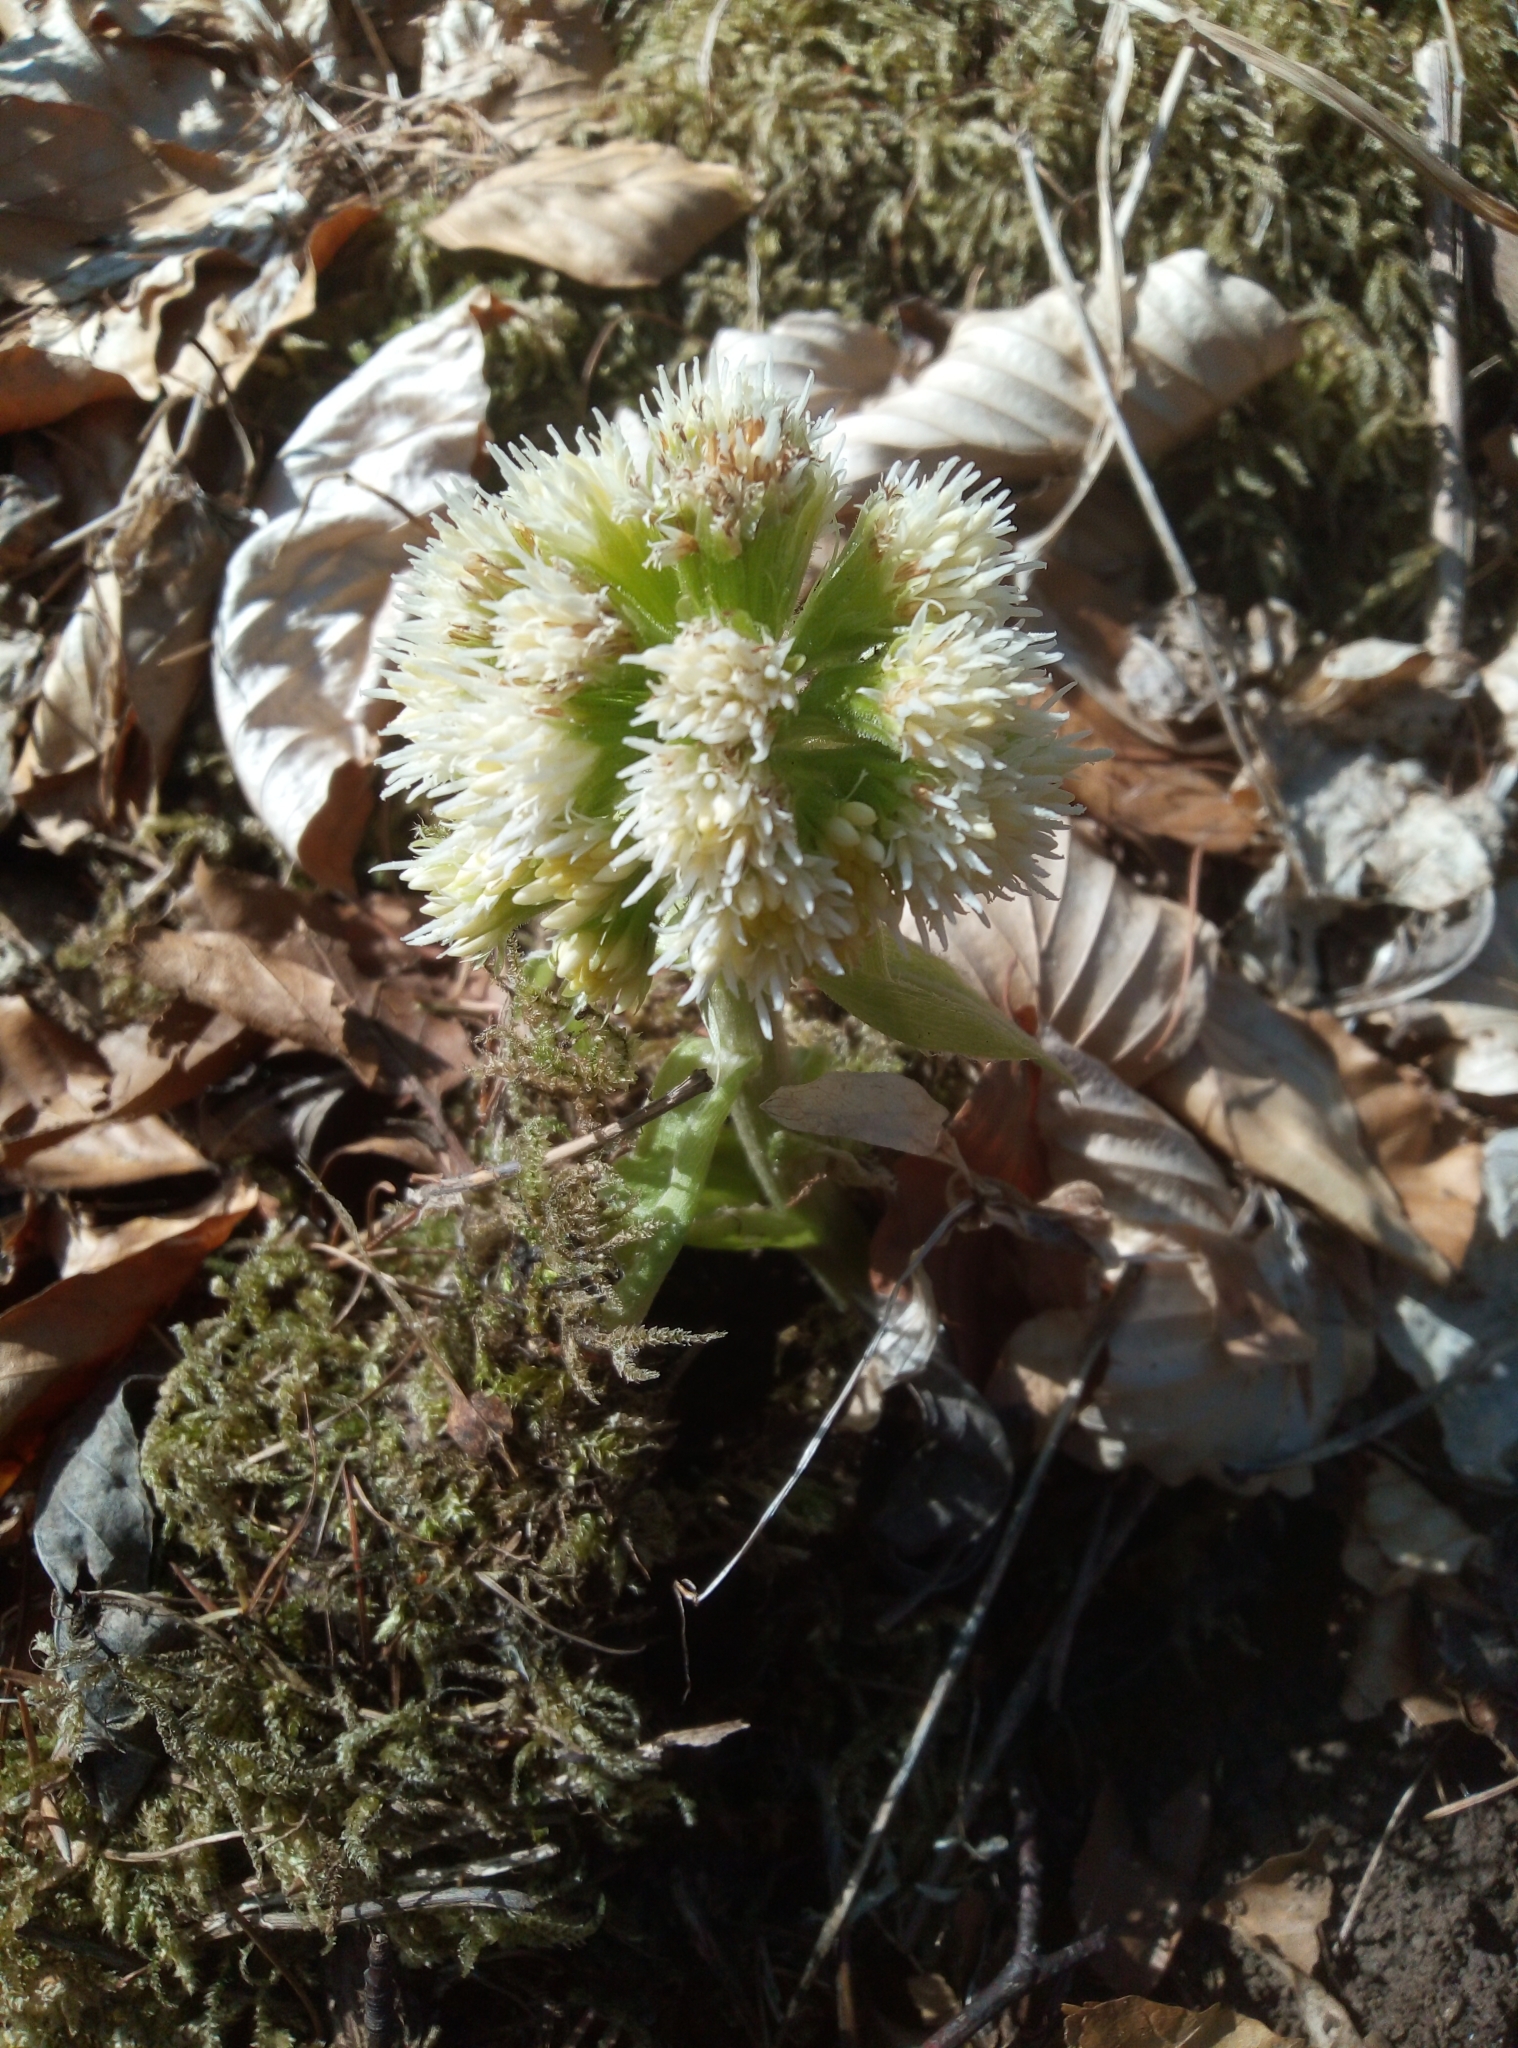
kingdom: Plantae
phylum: Tracheophyta
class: Magnoliopsida
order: Asterales
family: Asteraceae
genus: Petasites
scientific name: Petasites albus
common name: White butterbur
